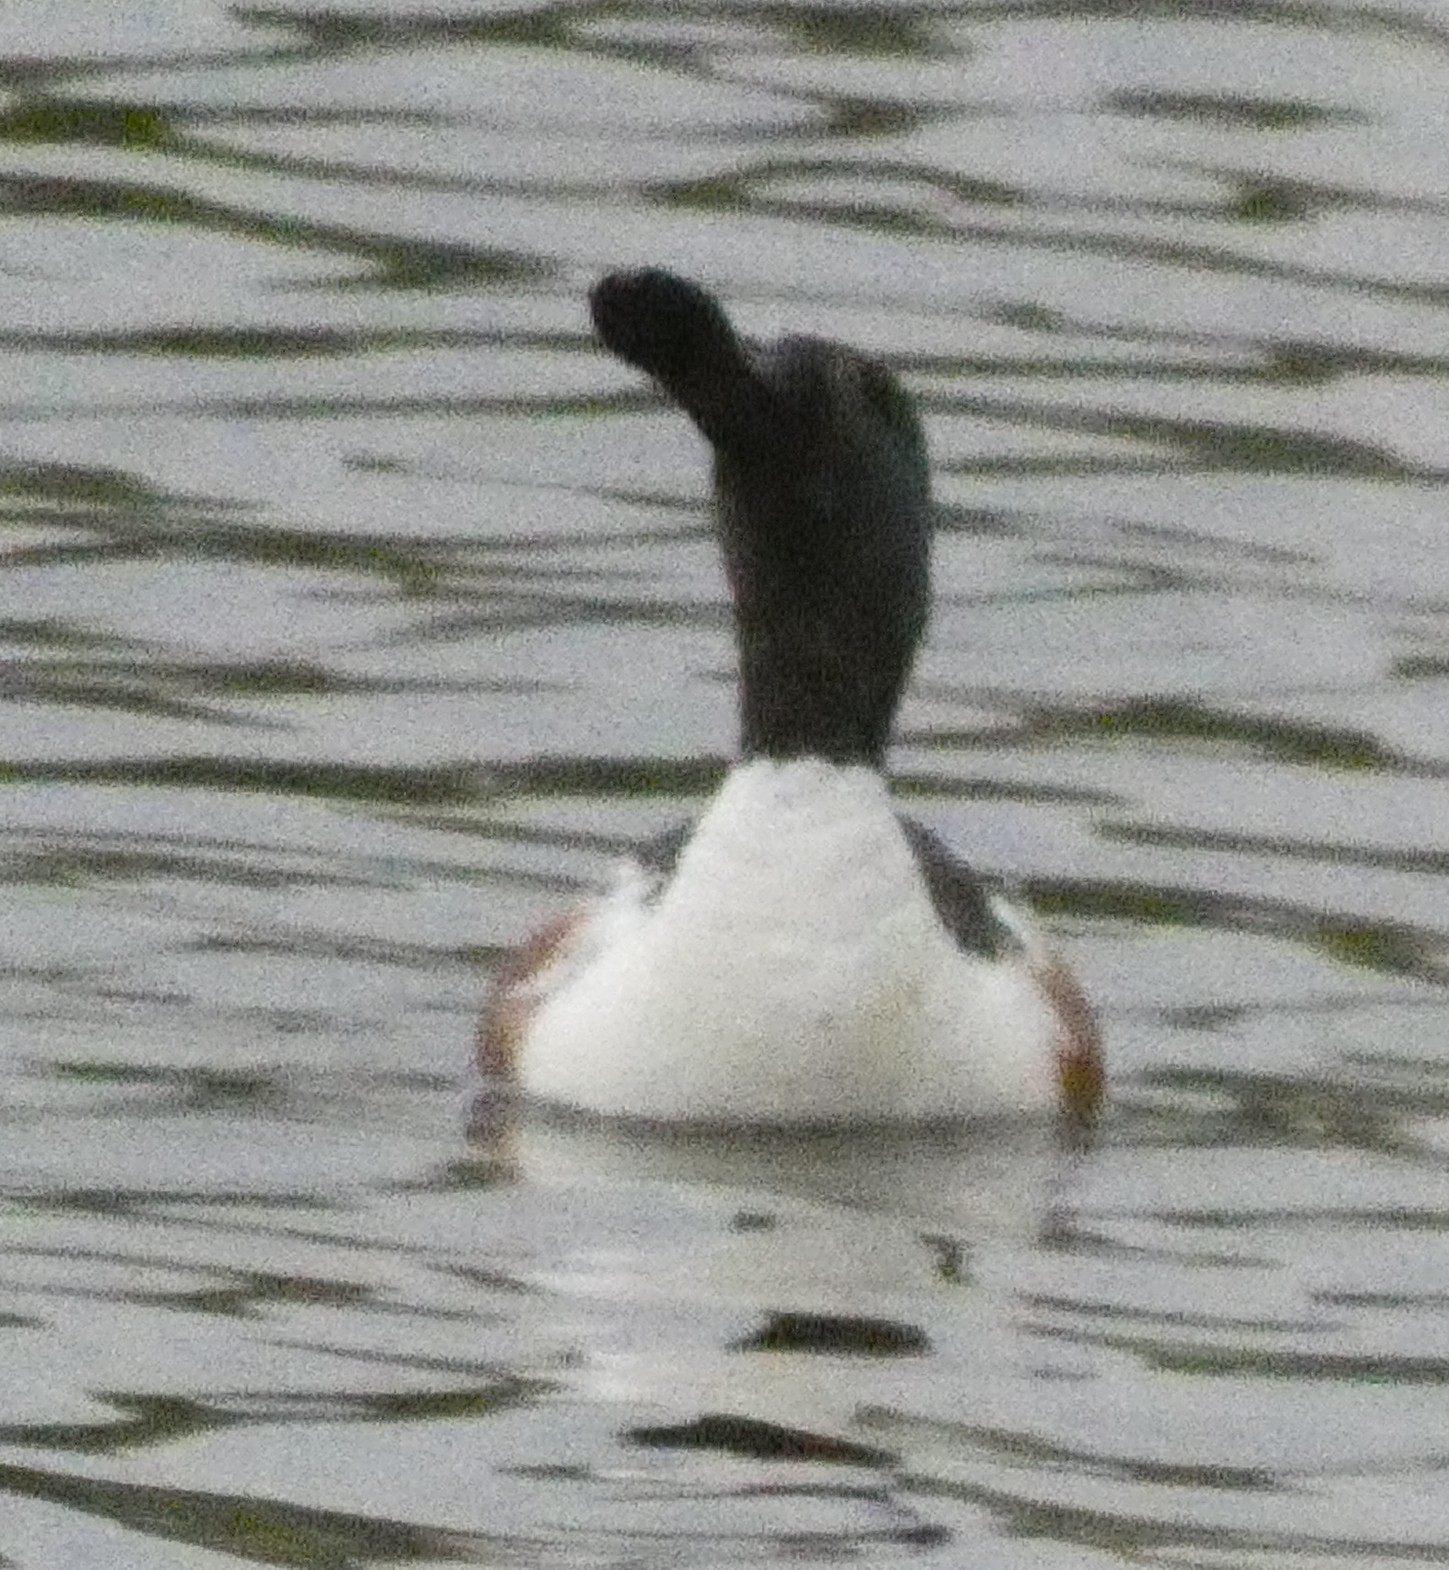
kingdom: Animalia
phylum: Chordata
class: Aves
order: Anseriformes
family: Anatidae
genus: Spatula
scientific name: Spatula clypeata
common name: Northern shoveler
